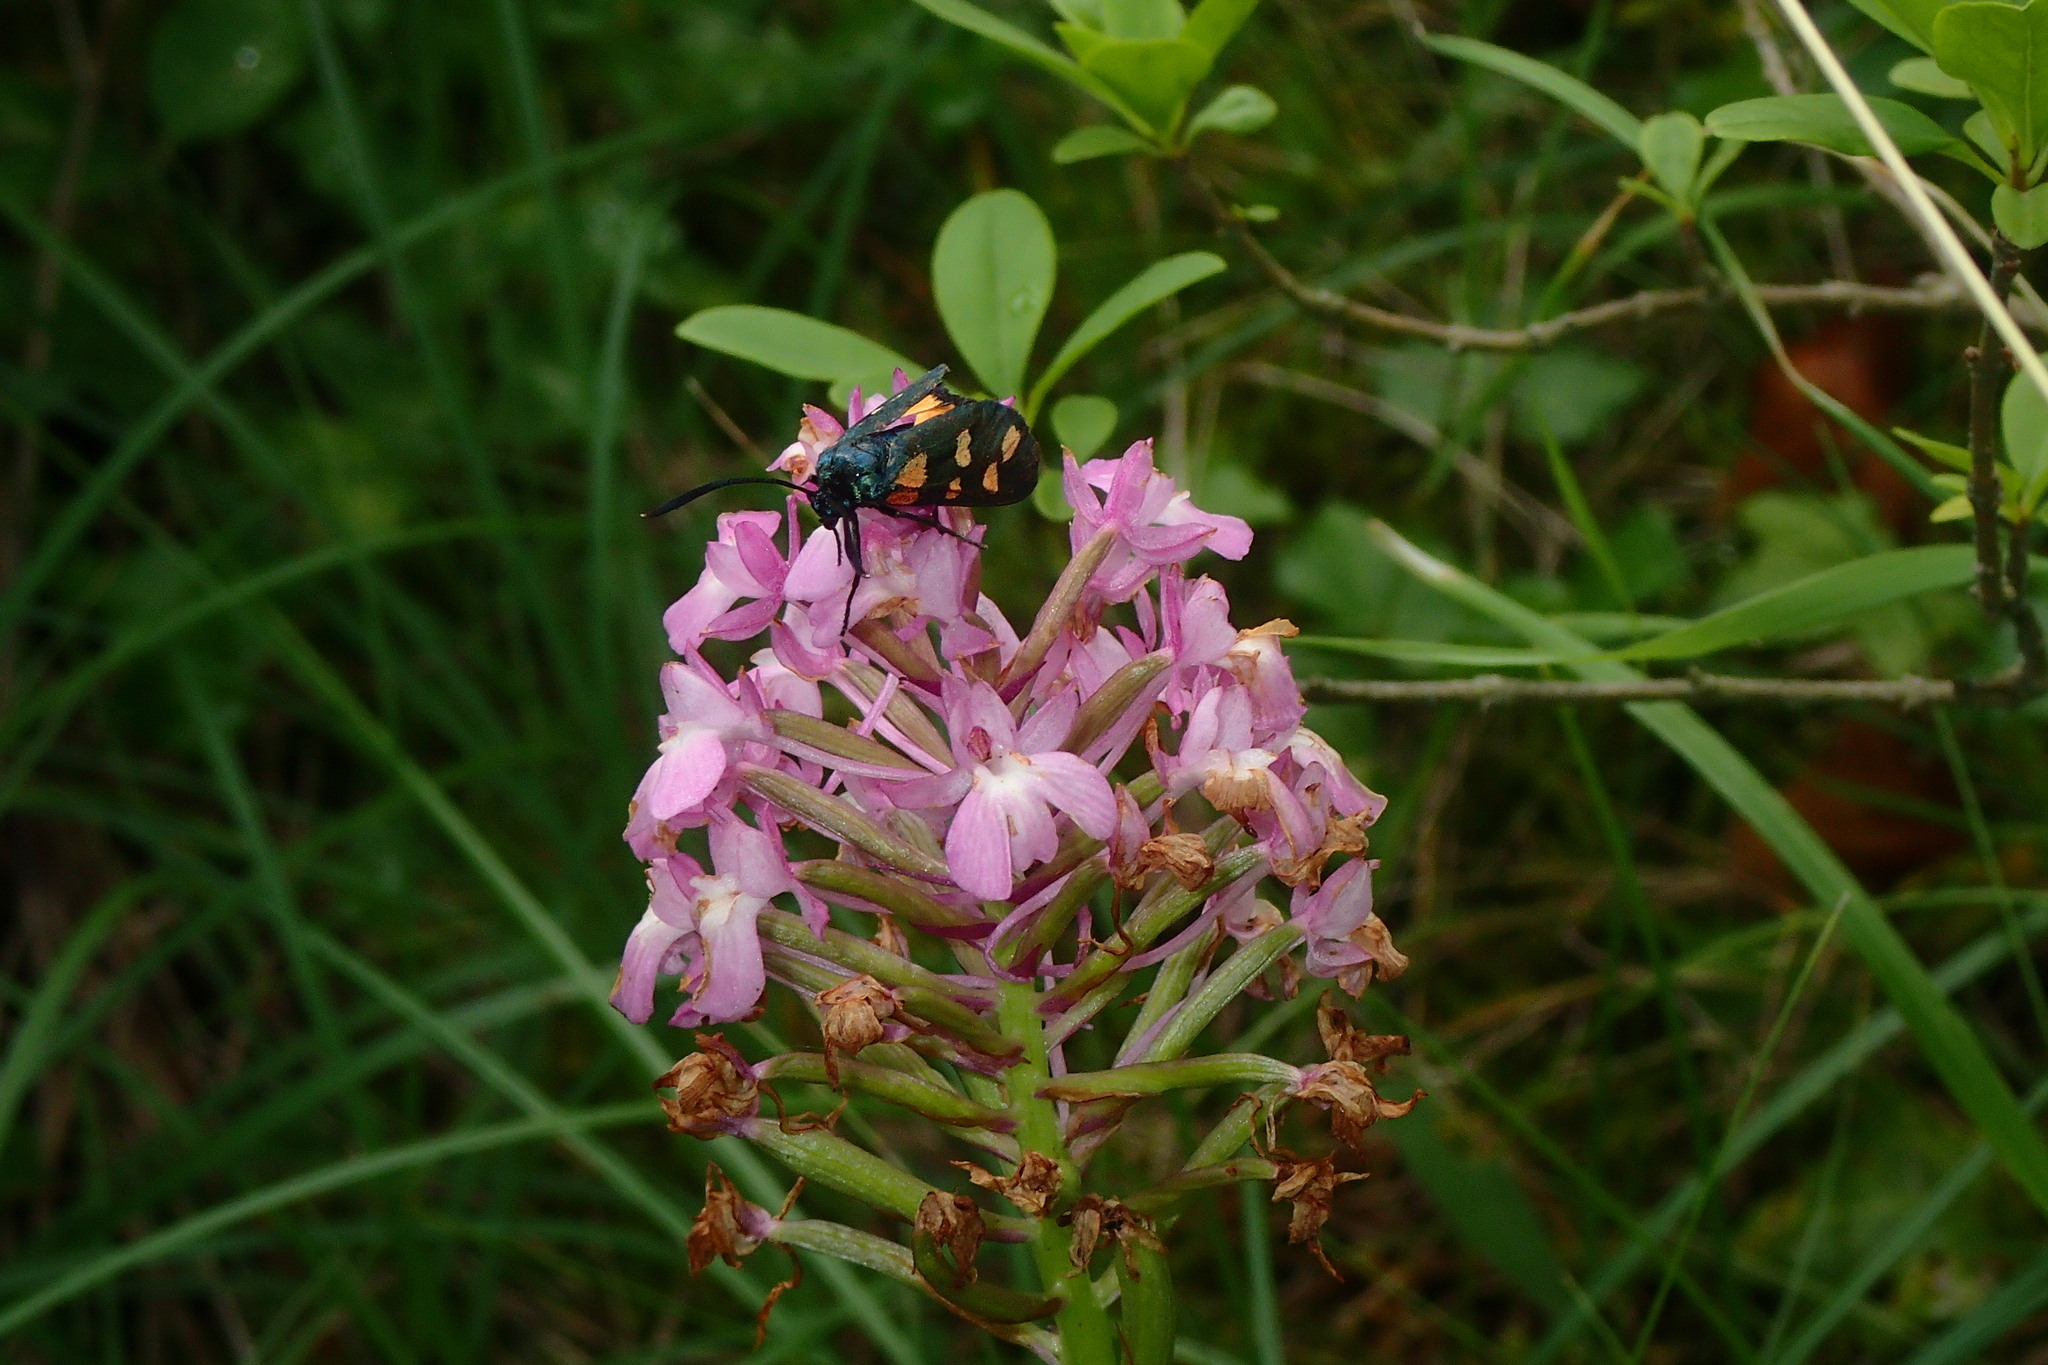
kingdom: Plantae
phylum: Tracheophyta
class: Liliopsida
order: Asparagales
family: Orchidaceae
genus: Anacamptis
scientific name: Anacamptis pyramidalis
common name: Pyramidal orchid
